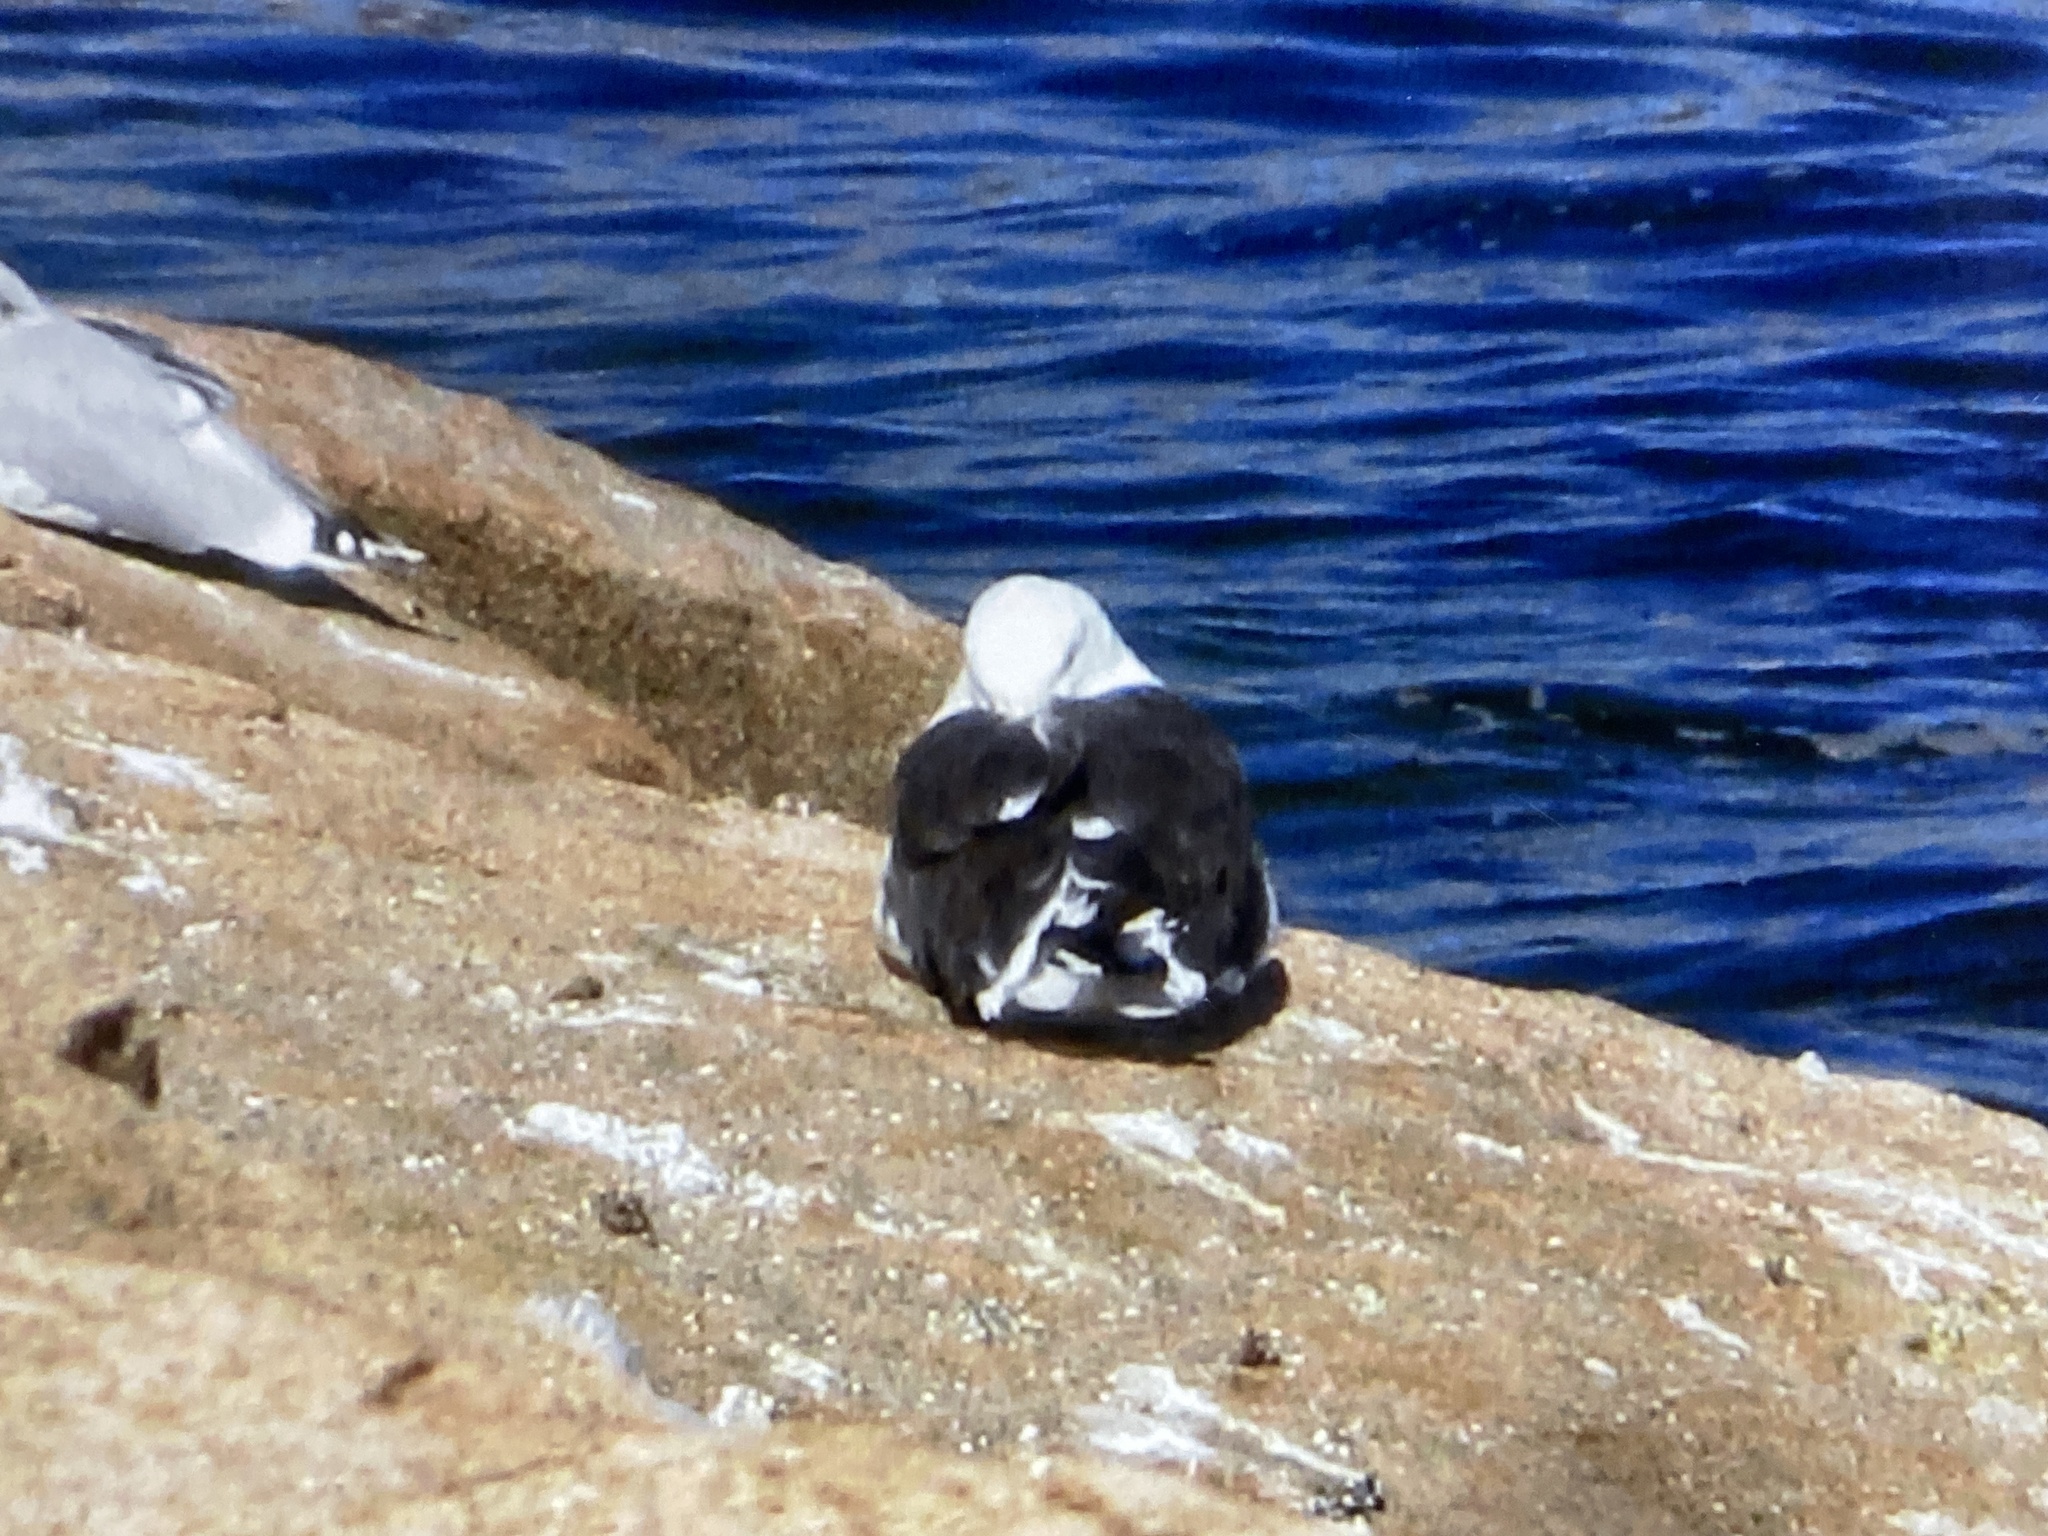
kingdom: Animalia
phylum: Chordata
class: Aves
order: Charadriiformes
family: Laridae
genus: Larus
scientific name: Larus marinus
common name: Great black-backed gull
